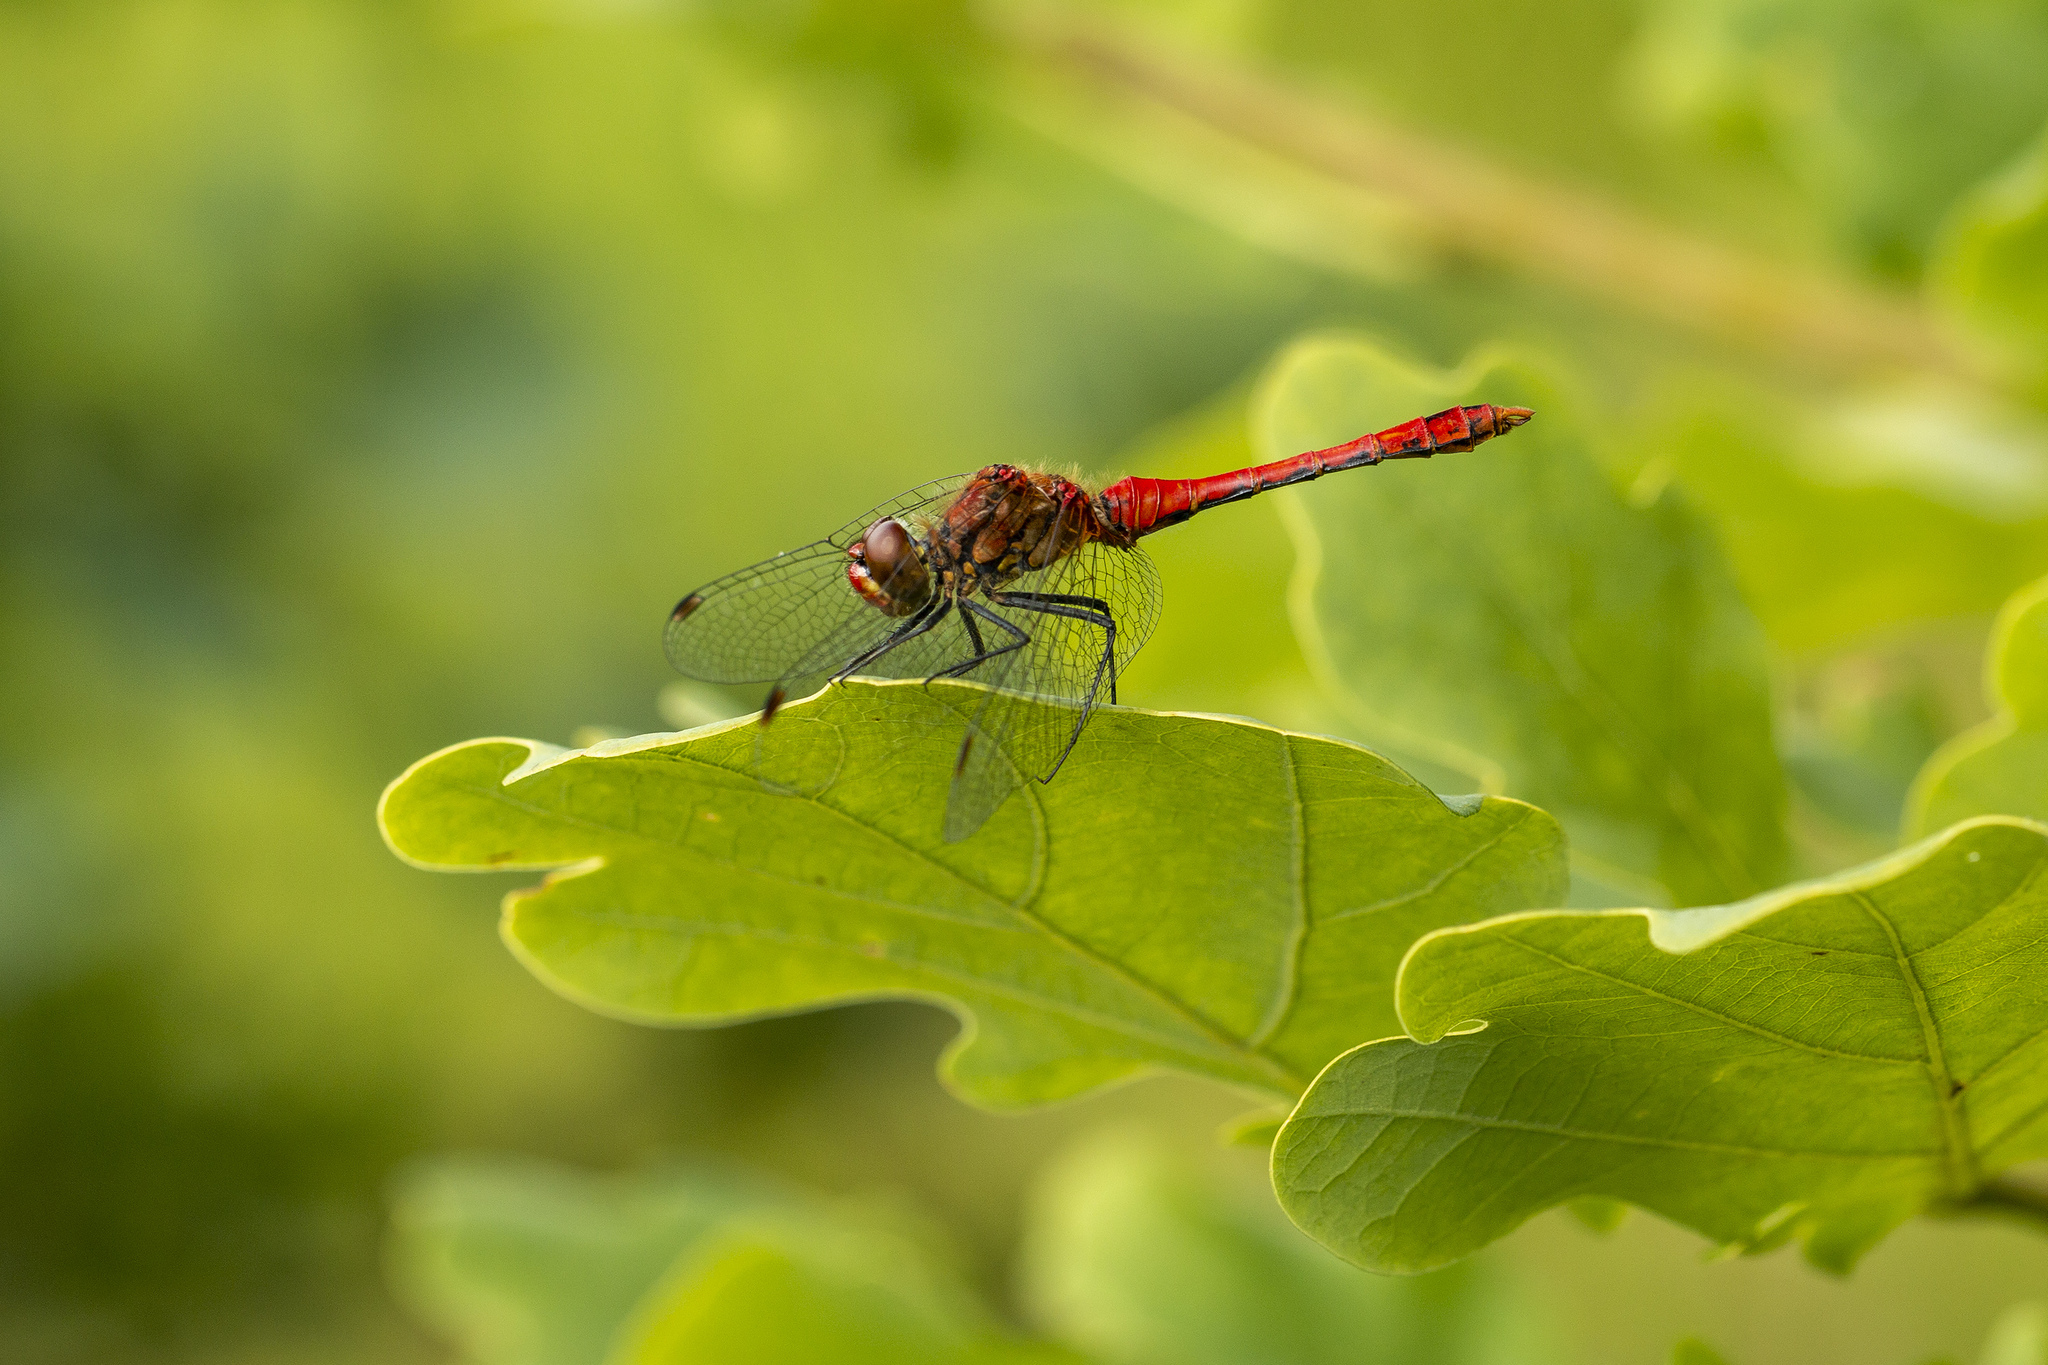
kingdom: Animalia
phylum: Arthropoda
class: Insecta
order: Odonata
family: Libellulidae
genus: Sympetrum
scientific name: Sympetrum sanguineum
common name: Ruddy darter
